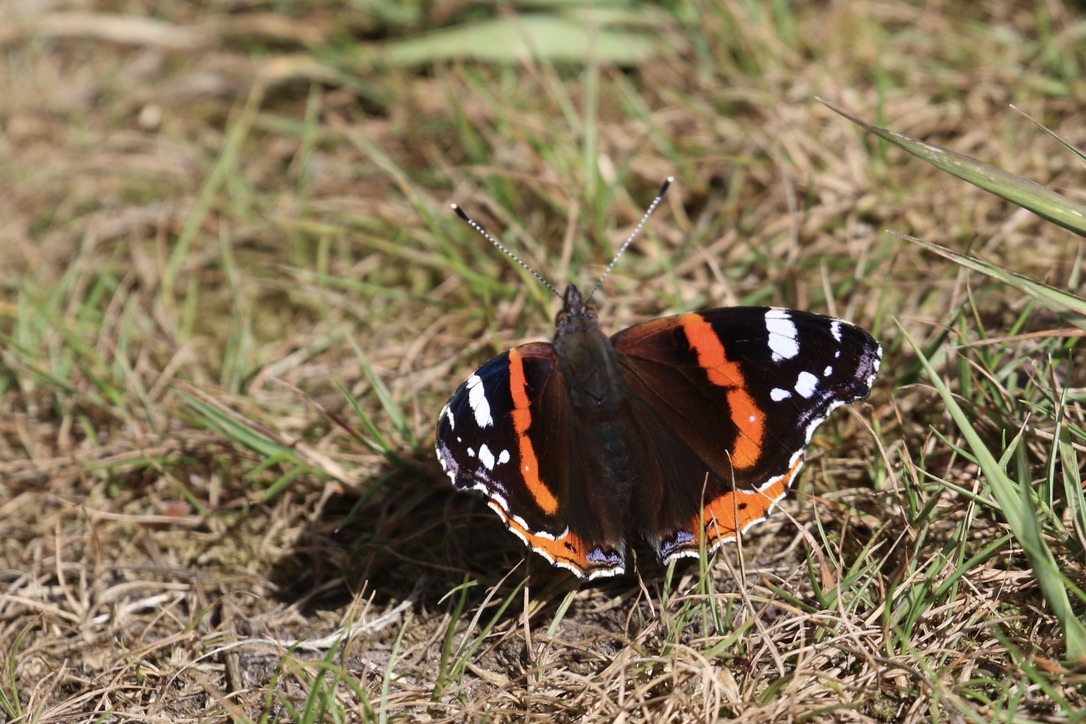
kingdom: Animalia
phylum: Arthropoda
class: Insecta
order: Lepidoptera
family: Nymphalidae
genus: Vanessa
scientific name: Vanessa atalanta
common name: Red admiral
